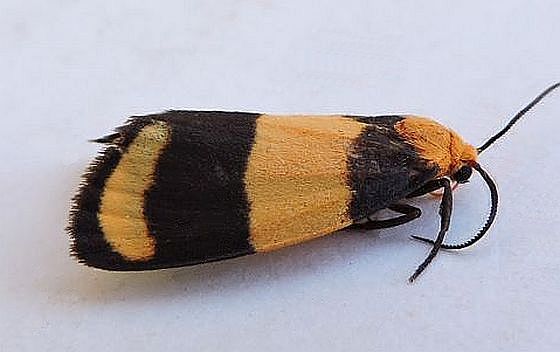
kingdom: Animalia
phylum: Arthropoda
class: Insecta
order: Lepidoptera
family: Erebidae
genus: Eudesmia
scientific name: Eudesmia arida
